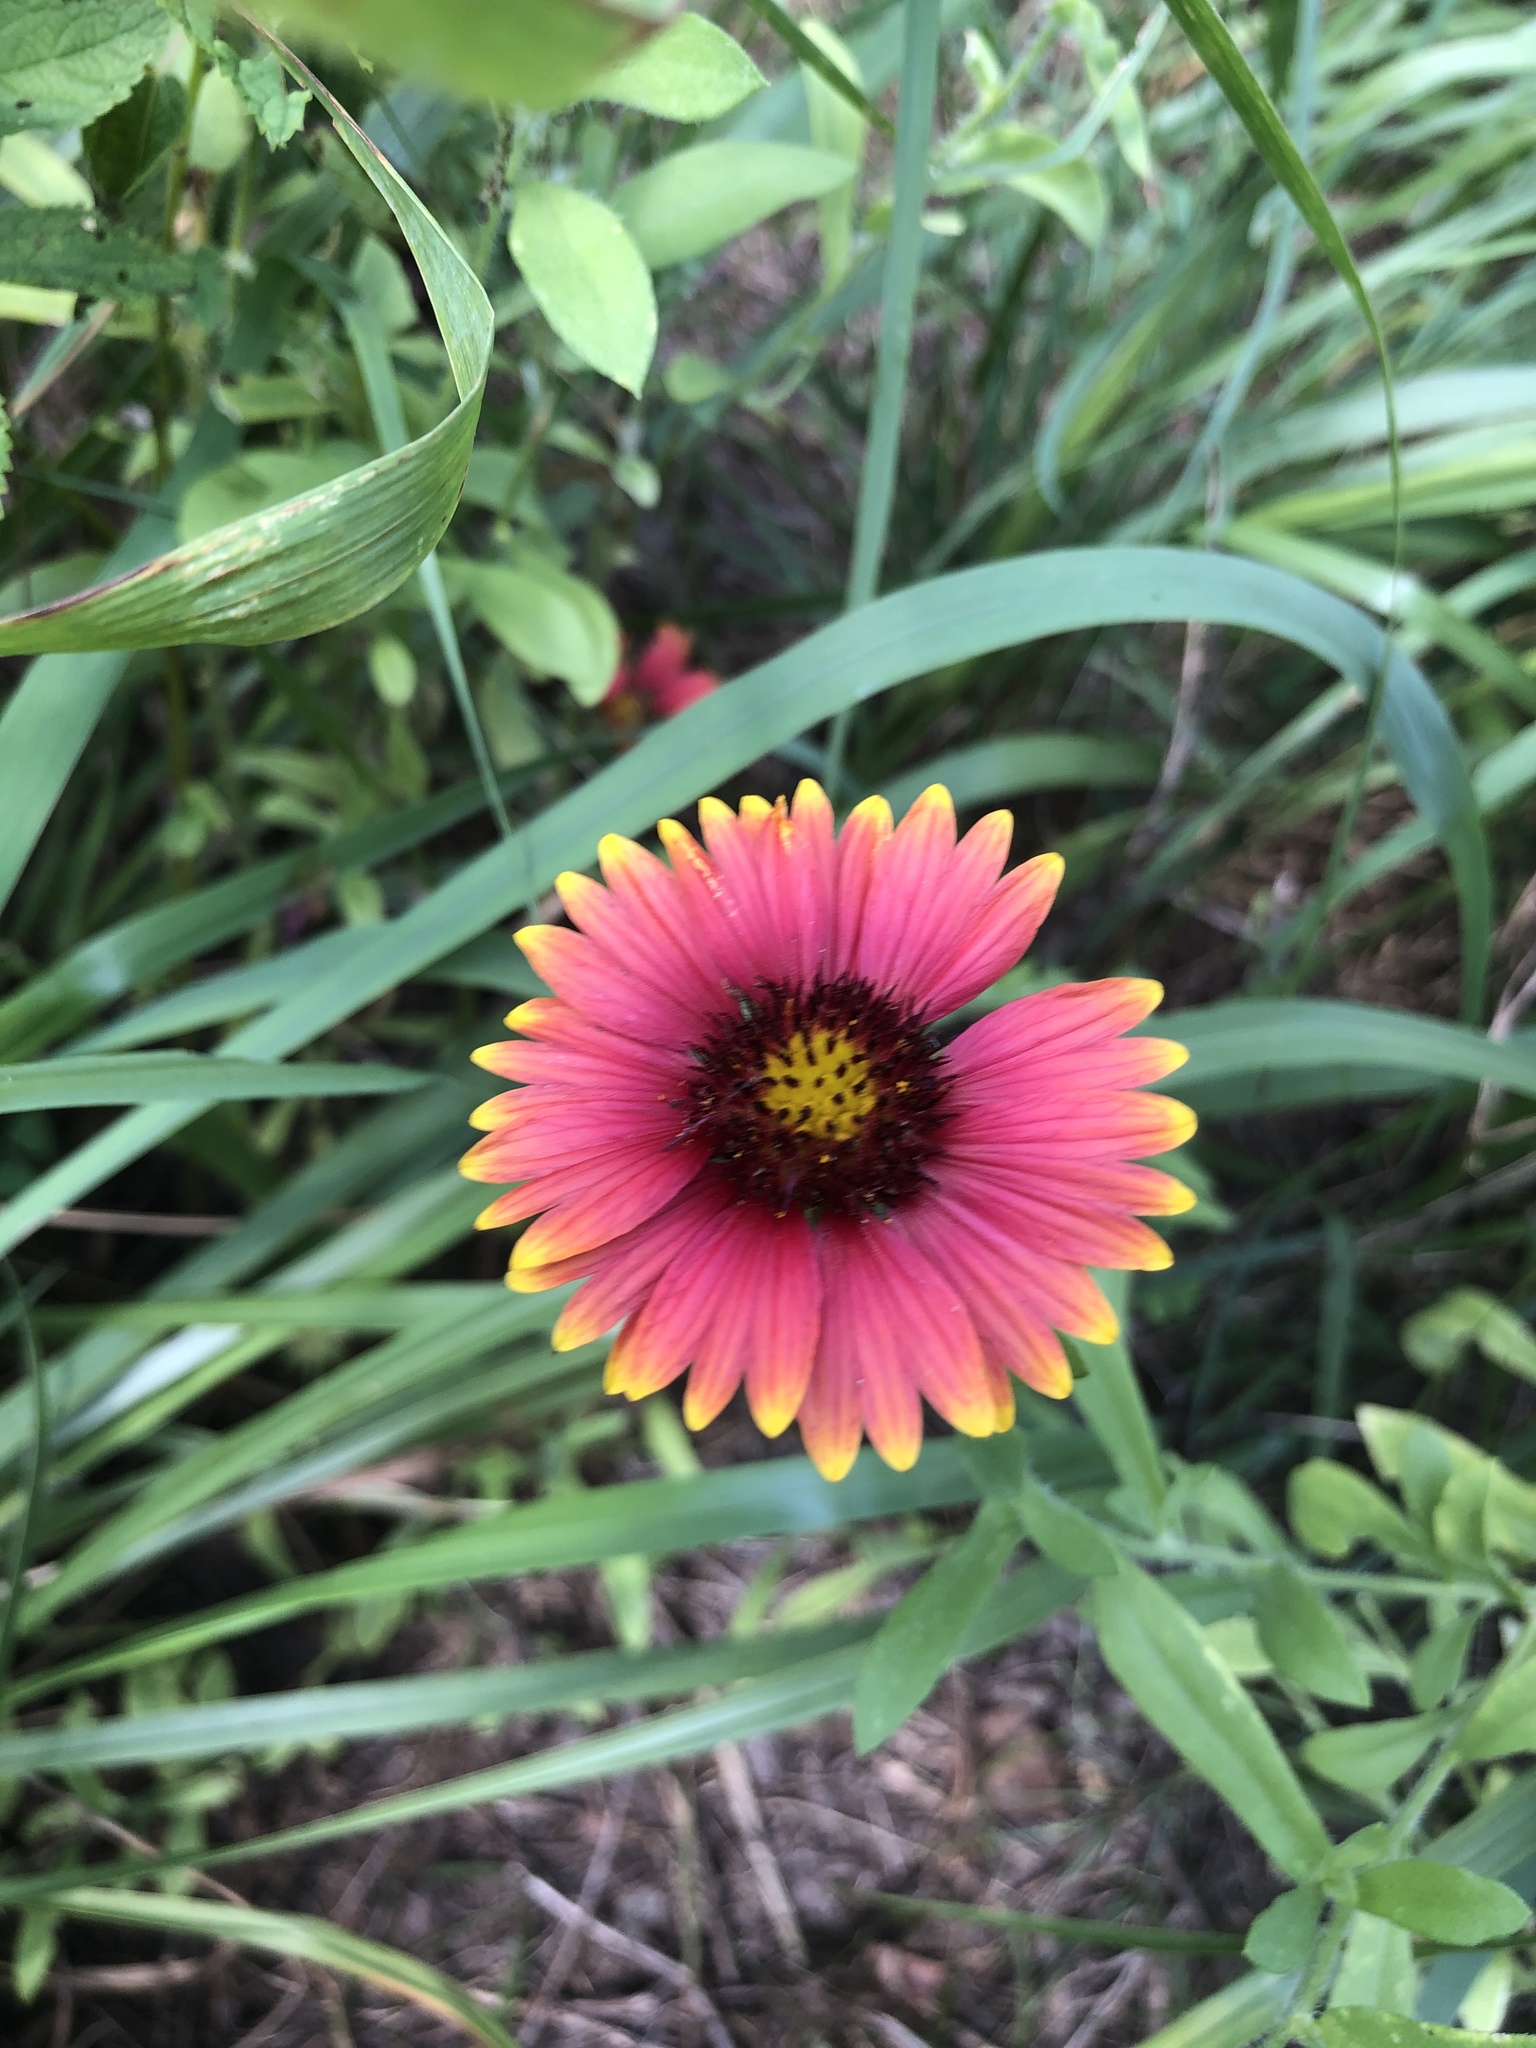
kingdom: Plantae
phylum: Tracheophyta
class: Magnoliopsida
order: Asterales
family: Asteraceae
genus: Gaillardia
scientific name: Gaillardia pulchella
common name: Firewheel
